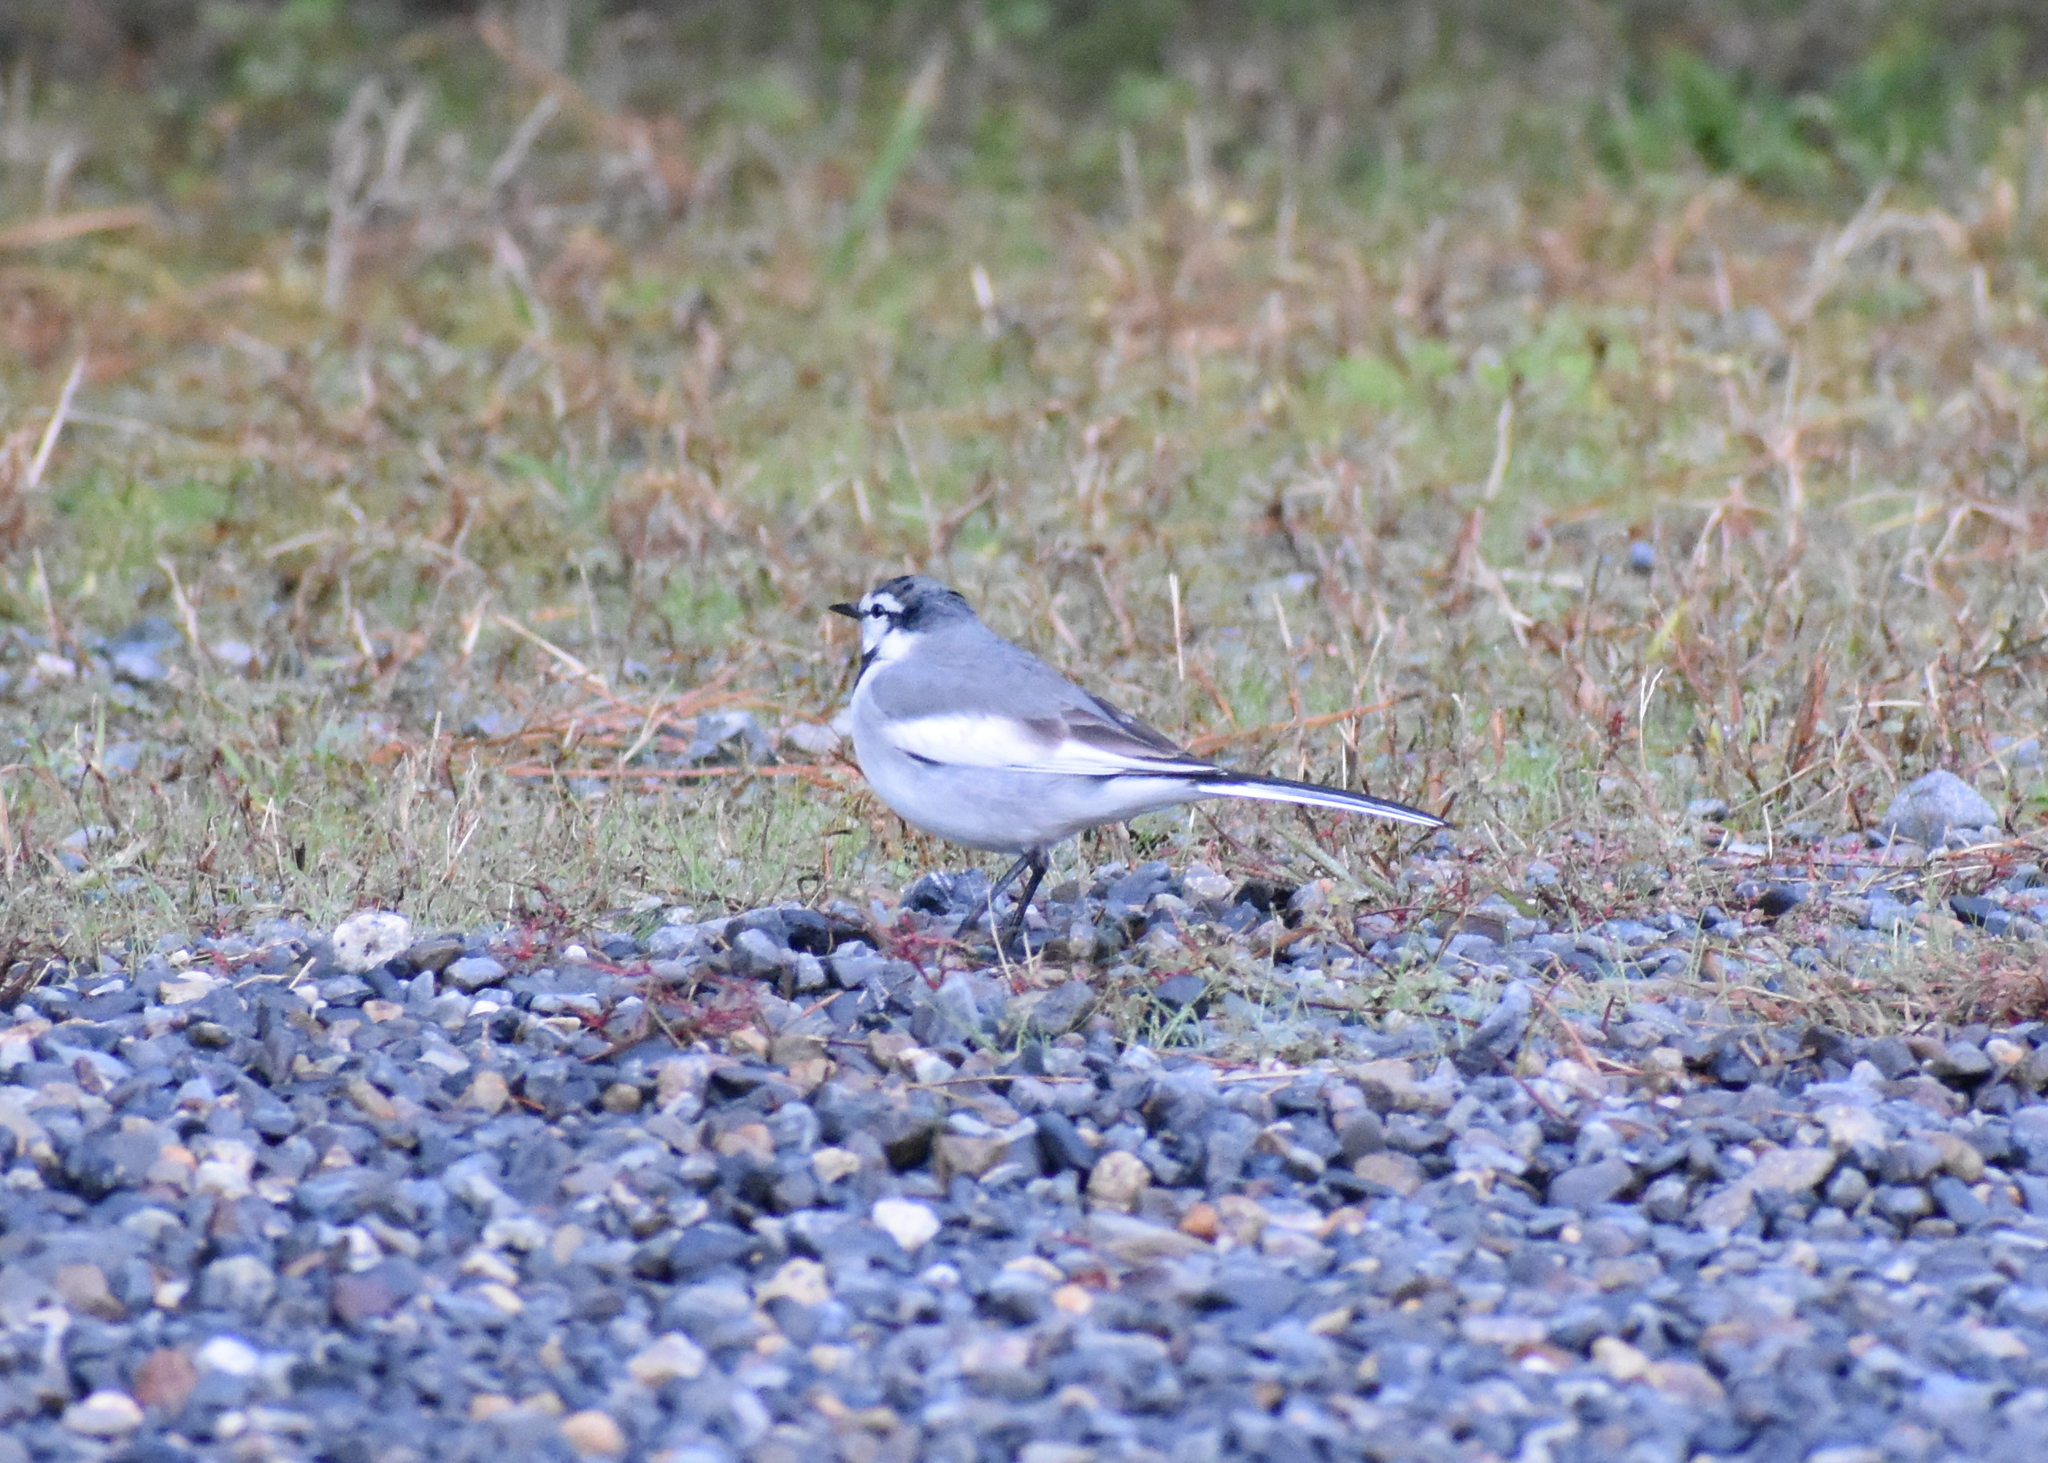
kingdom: Animalia
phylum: Chordata
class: Aves
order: Passeriformes
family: Motacillidae
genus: Motacilla
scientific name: Motacilla alba
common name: White wagtail
